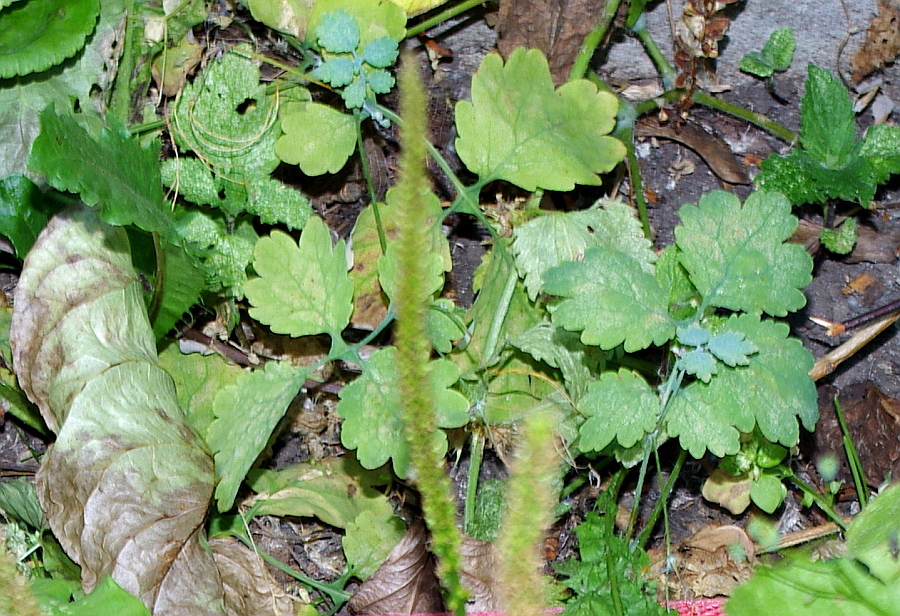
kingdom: Plantae
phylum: Tracheophyta
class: Magnoliopsida
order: Ranunculales
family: Papaveraceae
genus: Chelidonium
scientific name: Chelidonium majus
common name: Greater celandine
